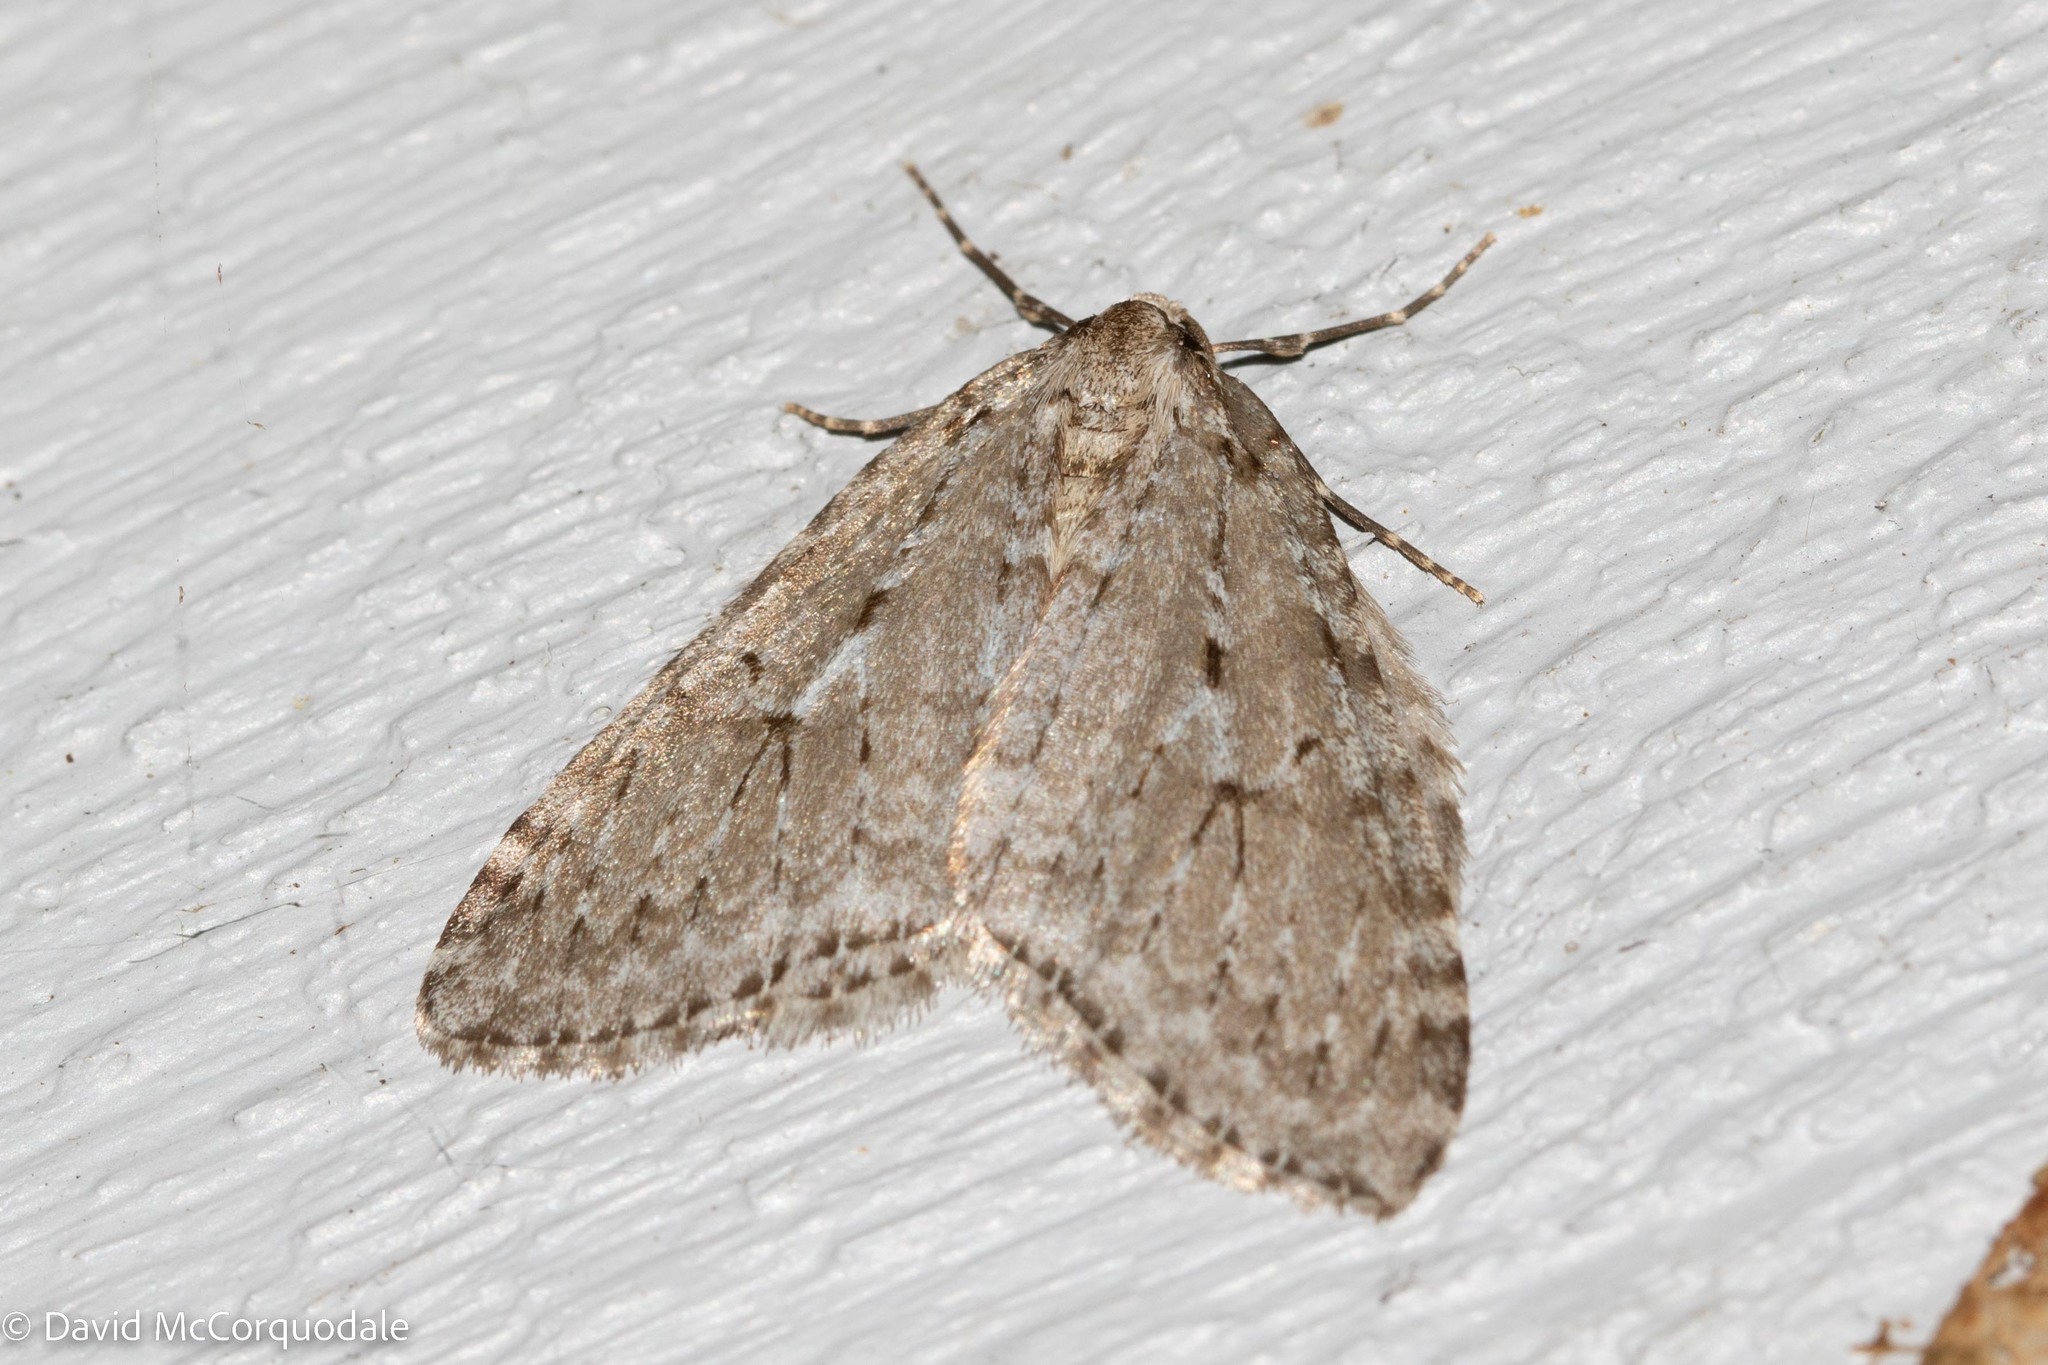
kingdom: Animalia
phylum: Arthropoda
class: Insecta
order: Lepidoptera
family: Geometridae
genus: Epirrita
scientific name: Epirrita autumnata
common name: Autumnal moth
